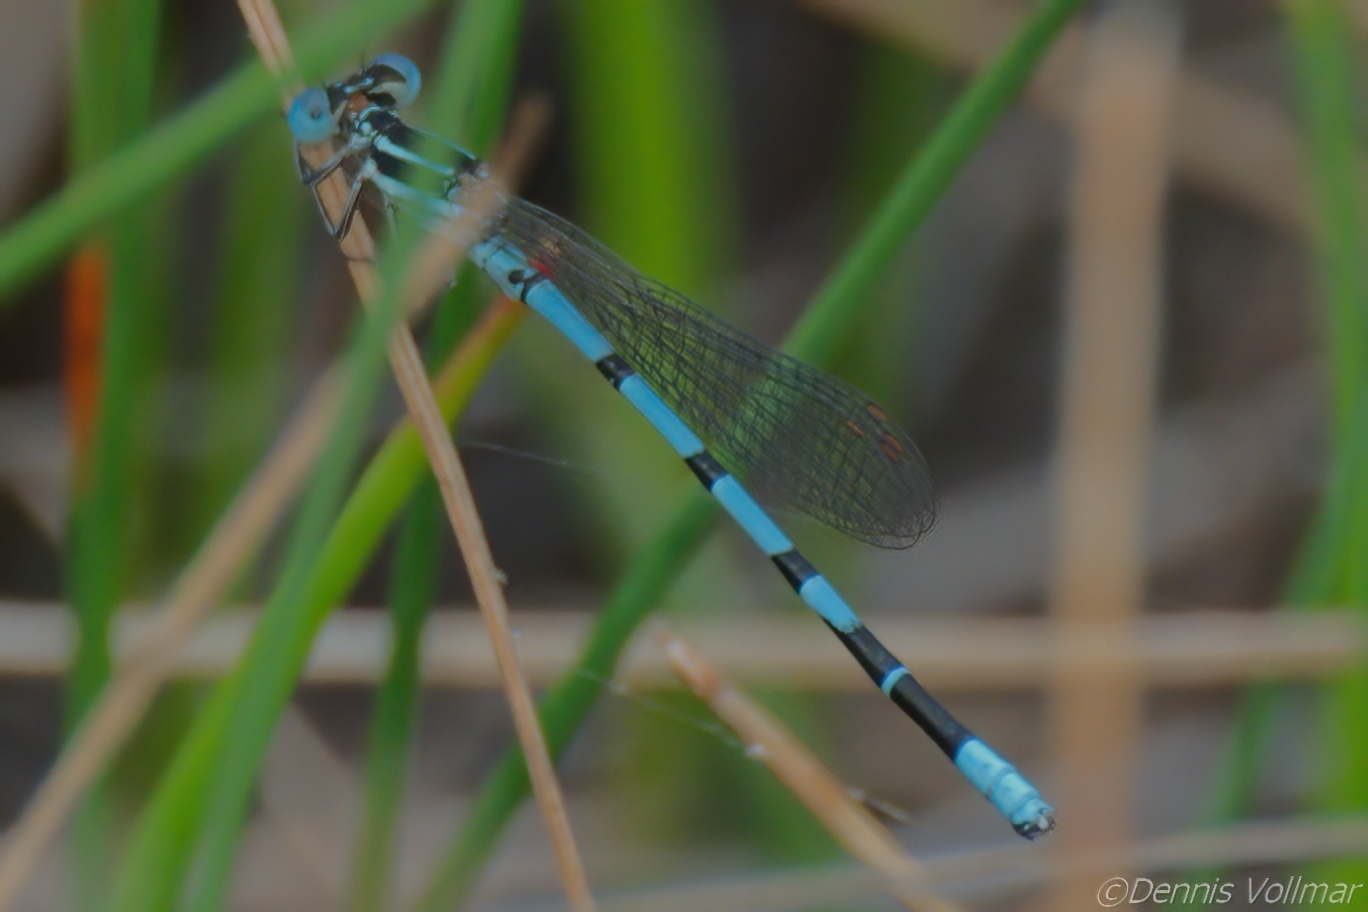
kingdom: Animalia
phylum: Arthropoda
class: Insecta
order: Odonata
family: Coenagrionidae
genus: Argia
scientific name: Argia bipunctulata
